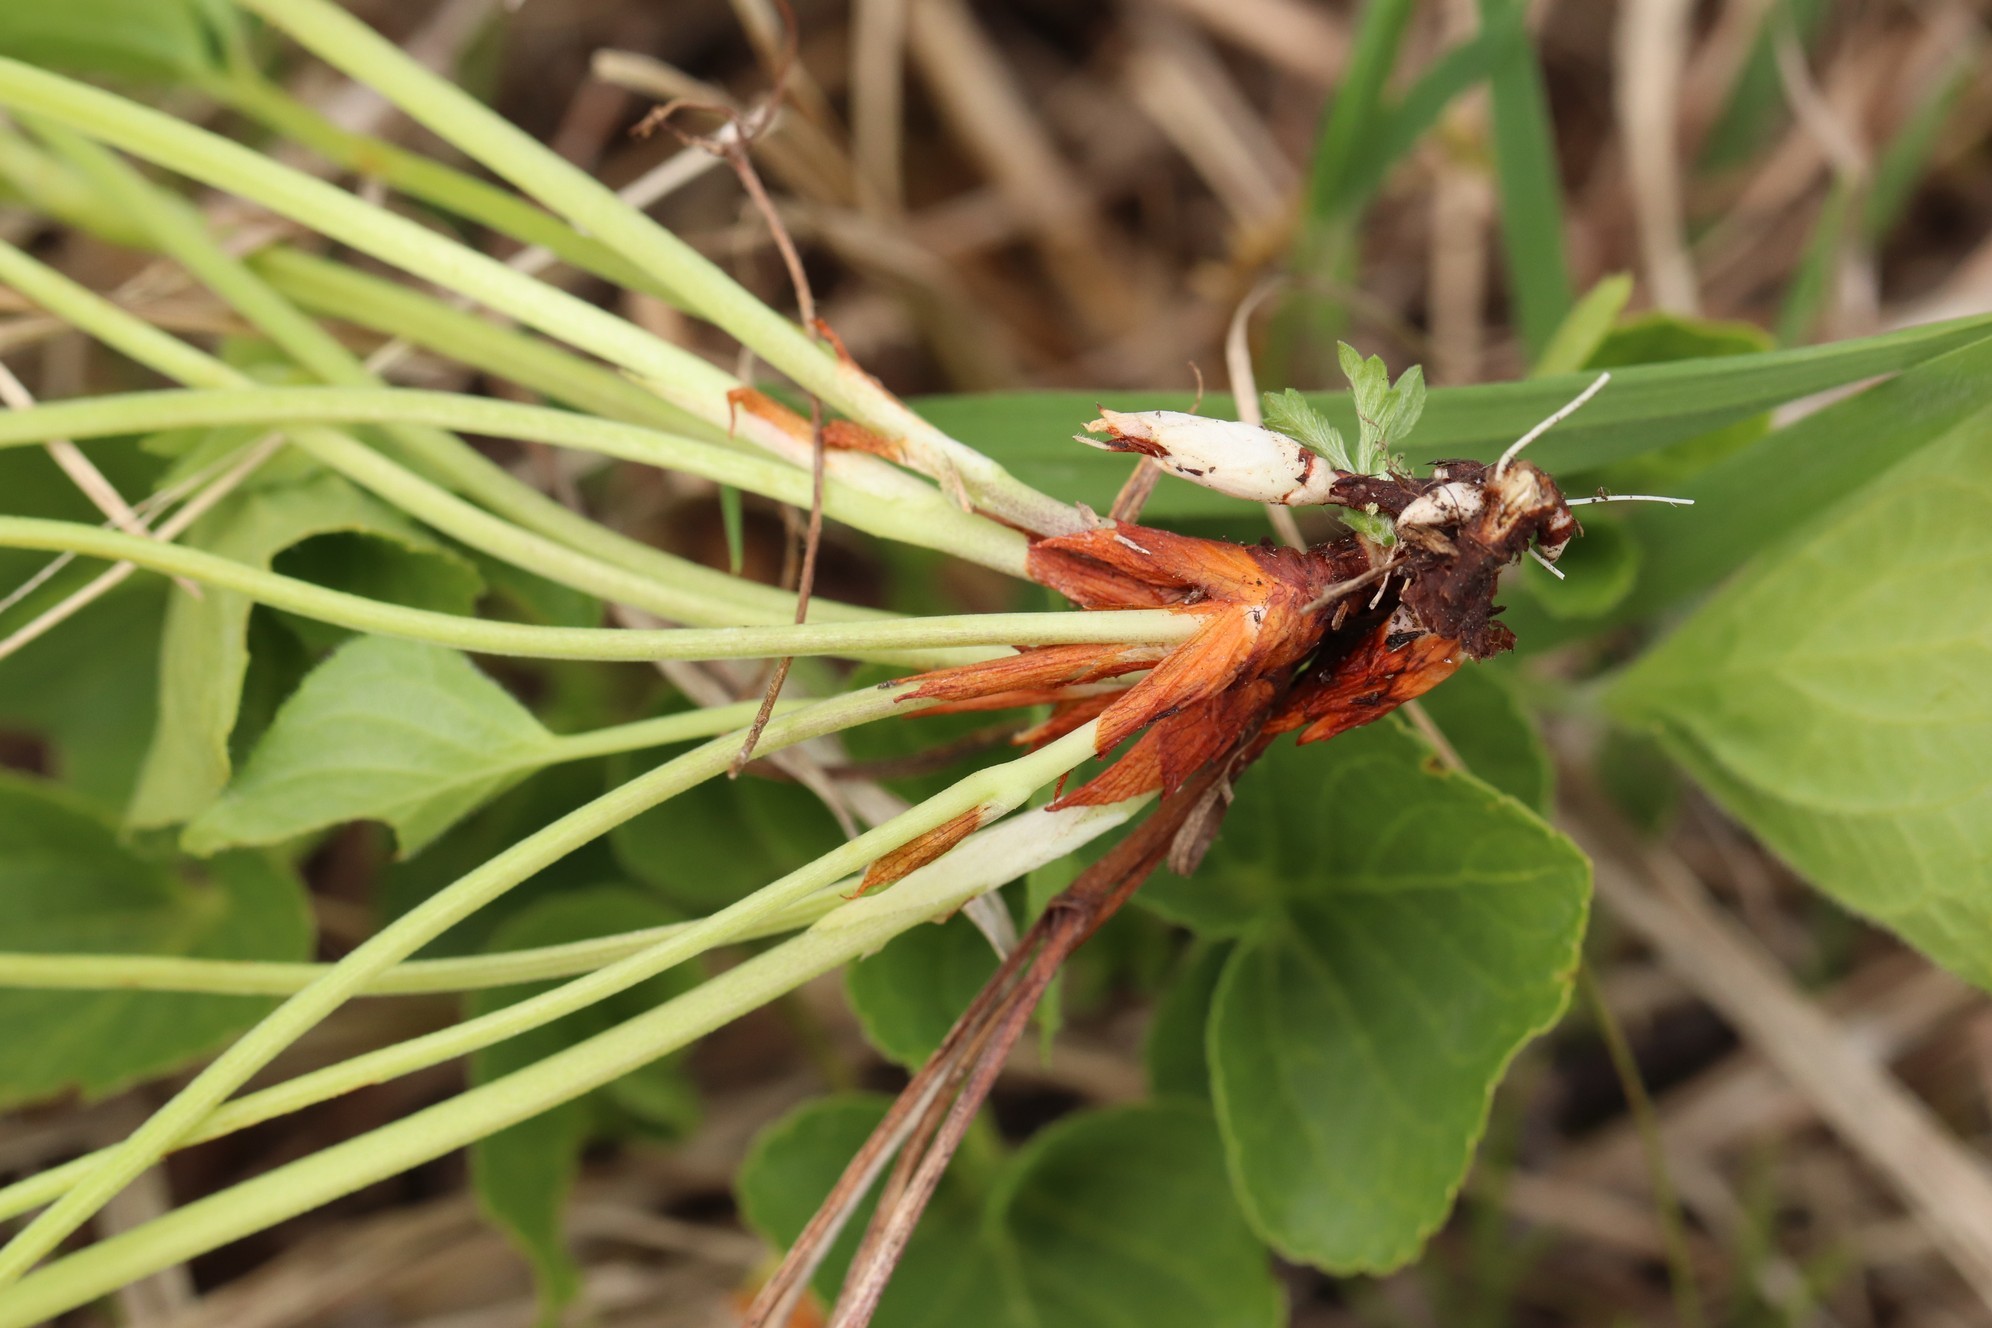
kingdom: Plantae
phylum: Tracheophyta
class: Magnoliopsida
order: Malpighiales
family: Violaceae
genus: Viola
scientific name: Viola mirabilis
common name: Wonder violet
